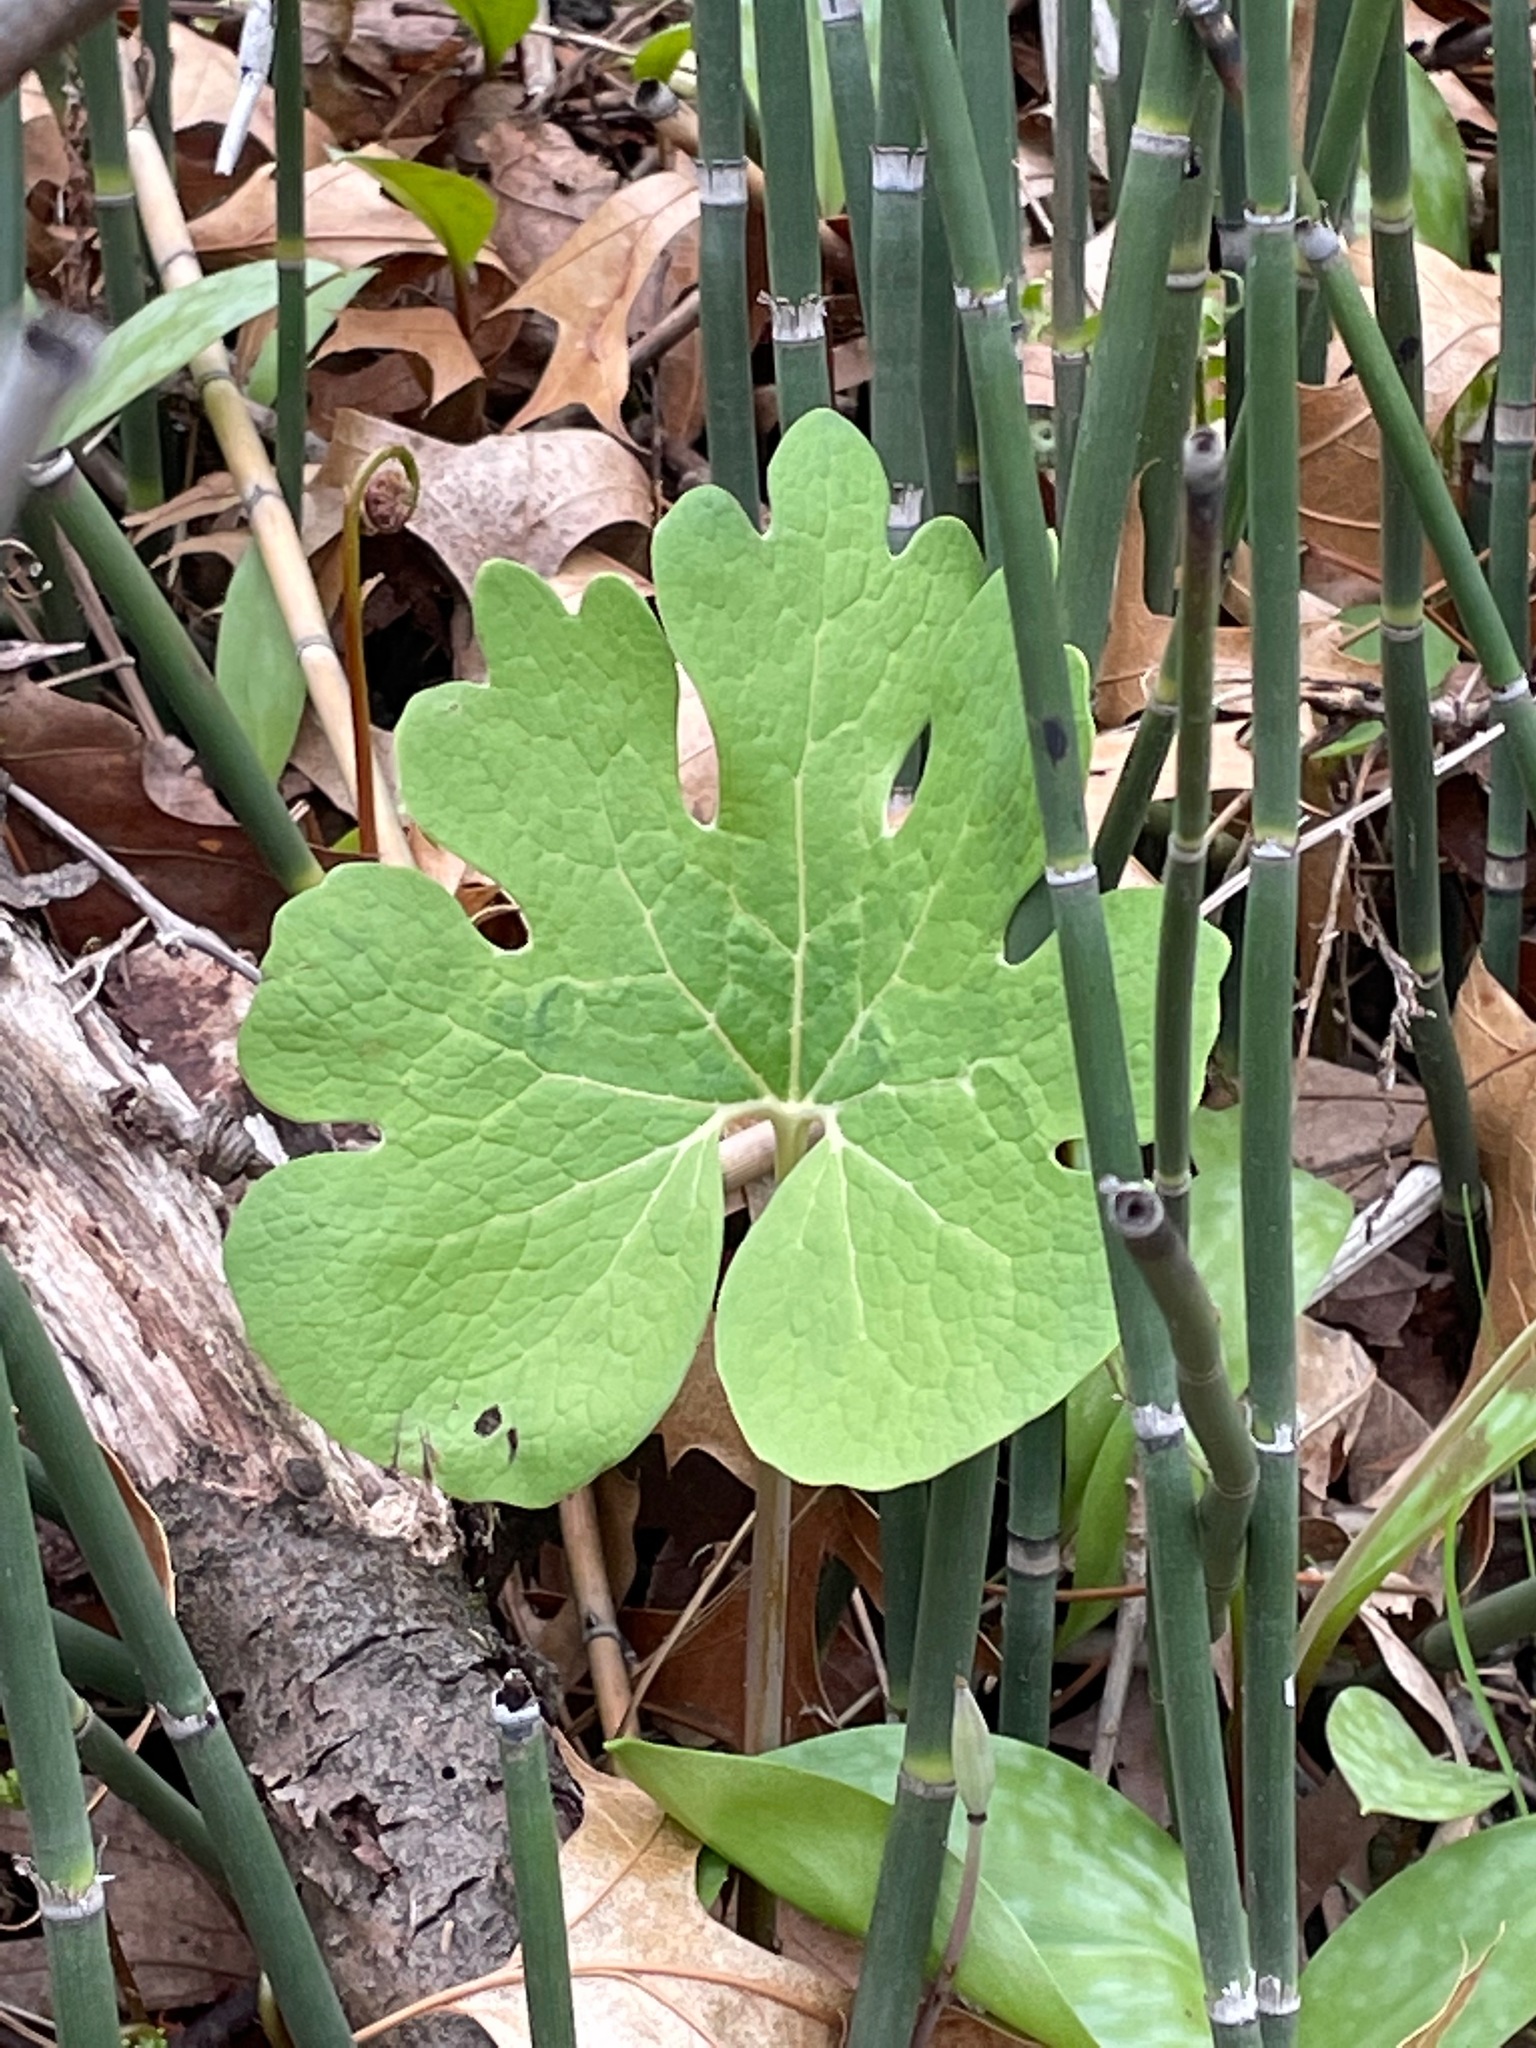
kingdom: Plantae
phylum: Tracheophyta
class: Magnoliopsida
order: Ranunculales
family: Papaveraceae
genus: Sanguinaria
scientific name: Sanguinaria canadensis
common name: Bloodroot
